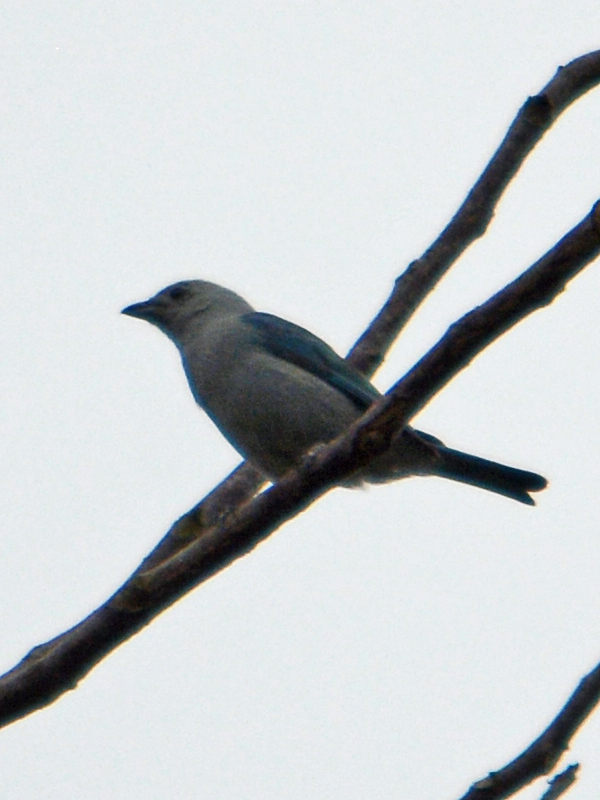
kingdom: Animalia
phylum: Chordata
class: Aves
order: Passeriformes
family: Thraupidae
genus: Thraupis
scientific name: Thraupis episcopus
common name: Blue-grey tanager
